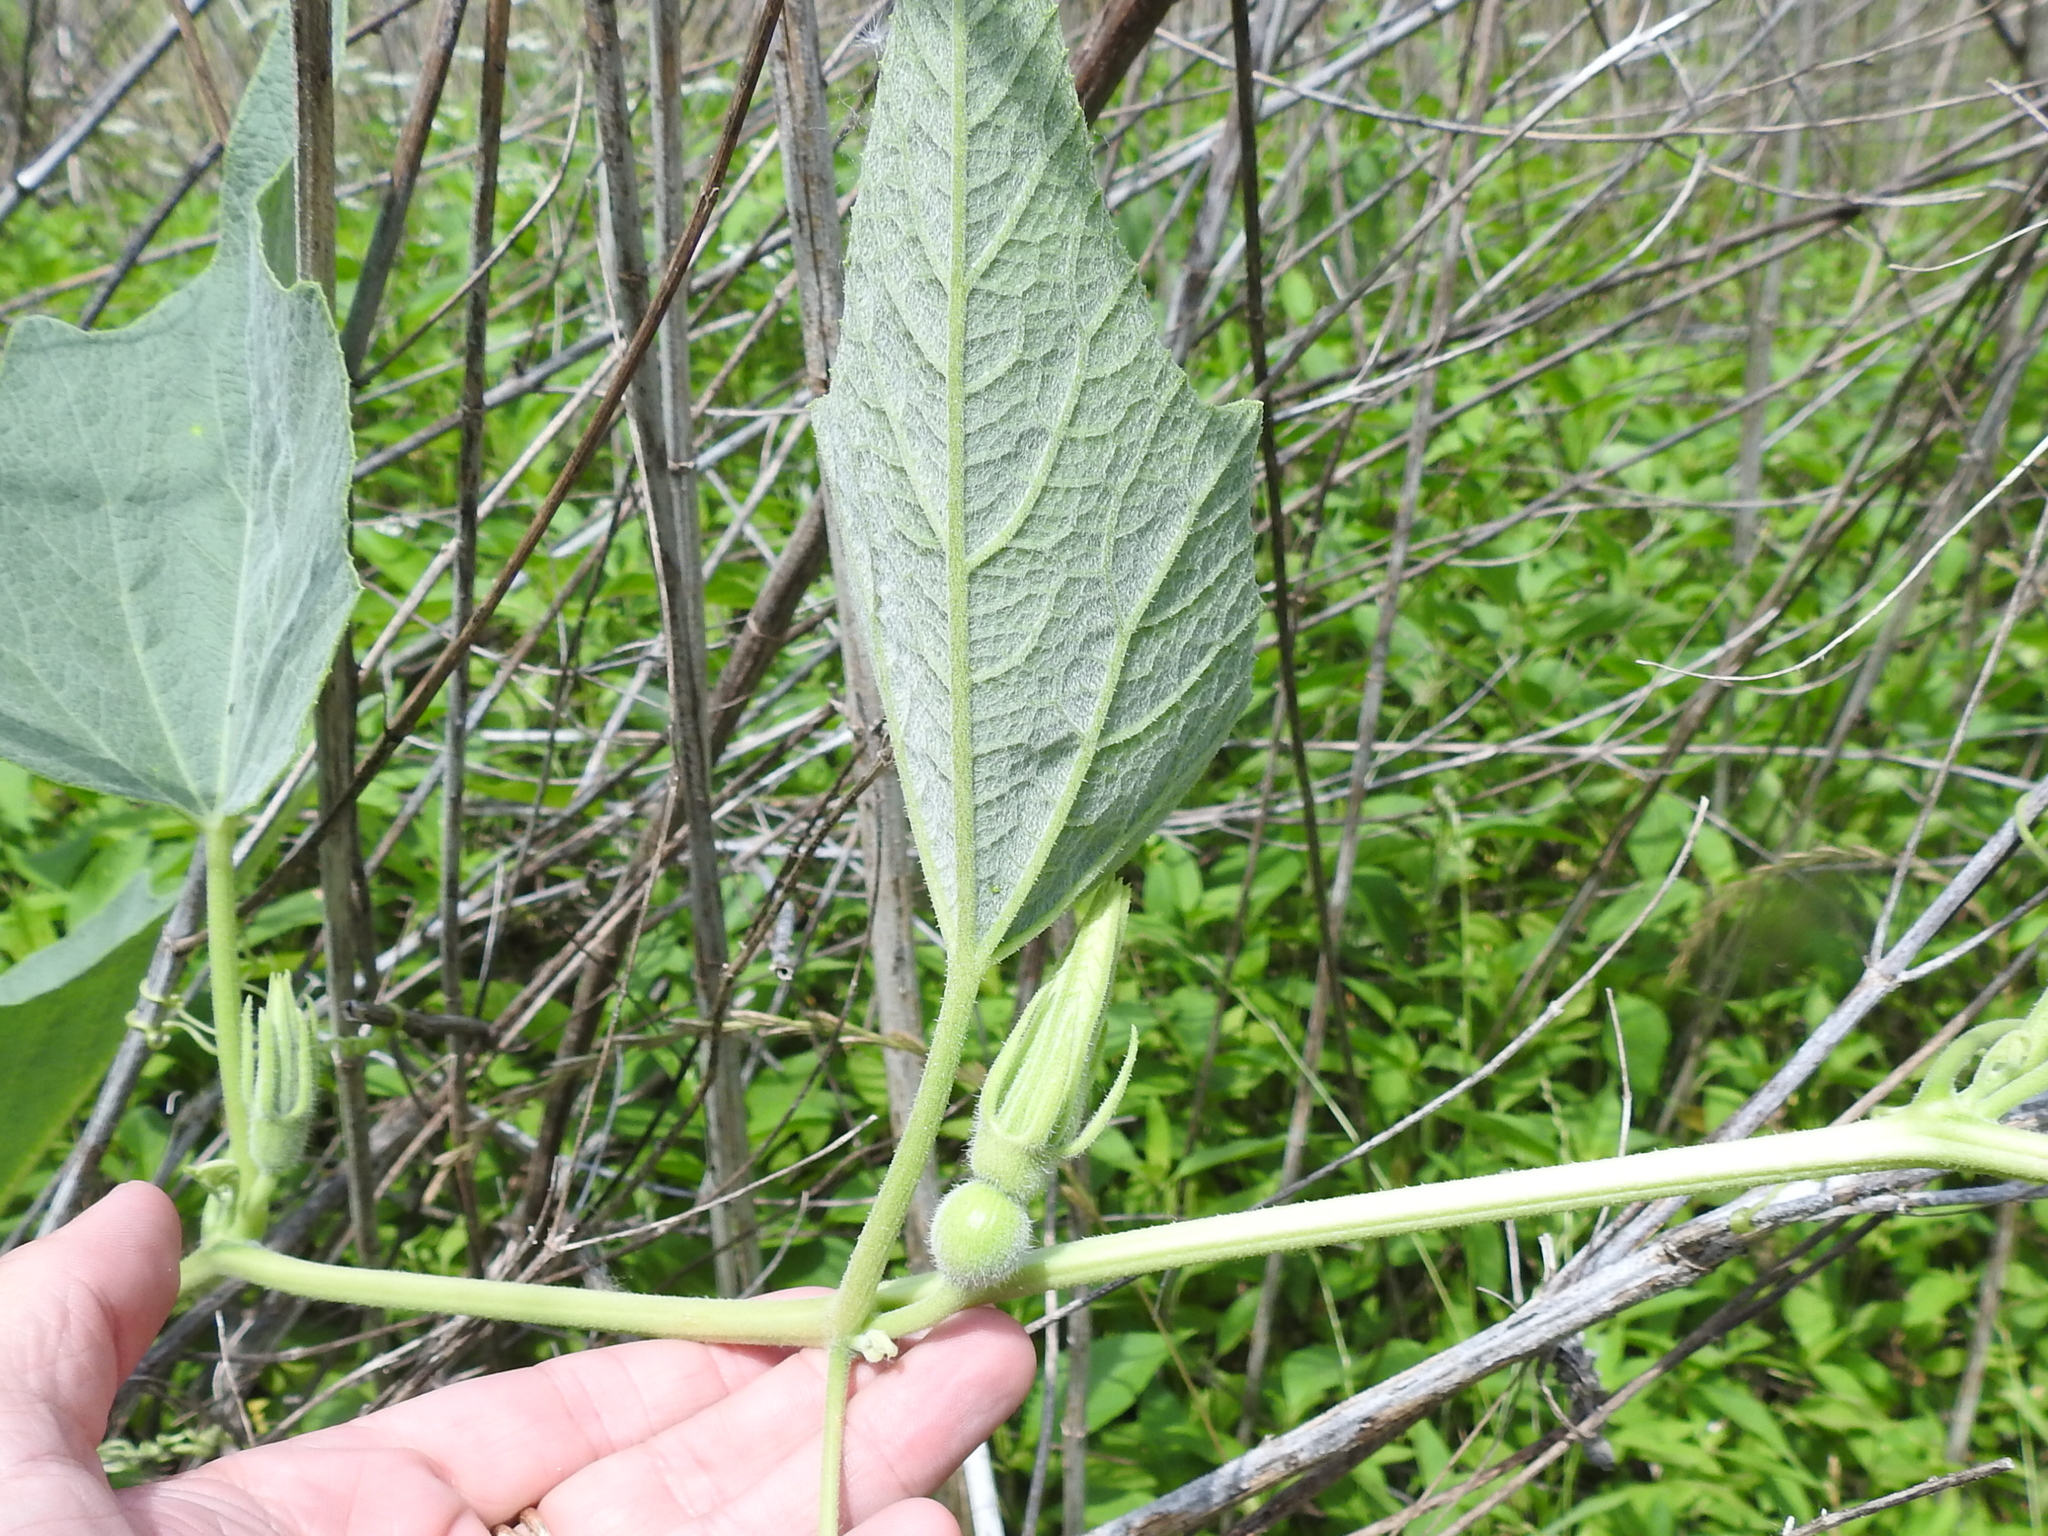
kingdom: Plantae
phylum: Tracheophyta
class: Magnoliopsida
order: Cucurbitales
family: Cucurbitaceae
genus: Cucurbita
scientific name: Cucurbita foetidissima
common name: Buffalo gourd
